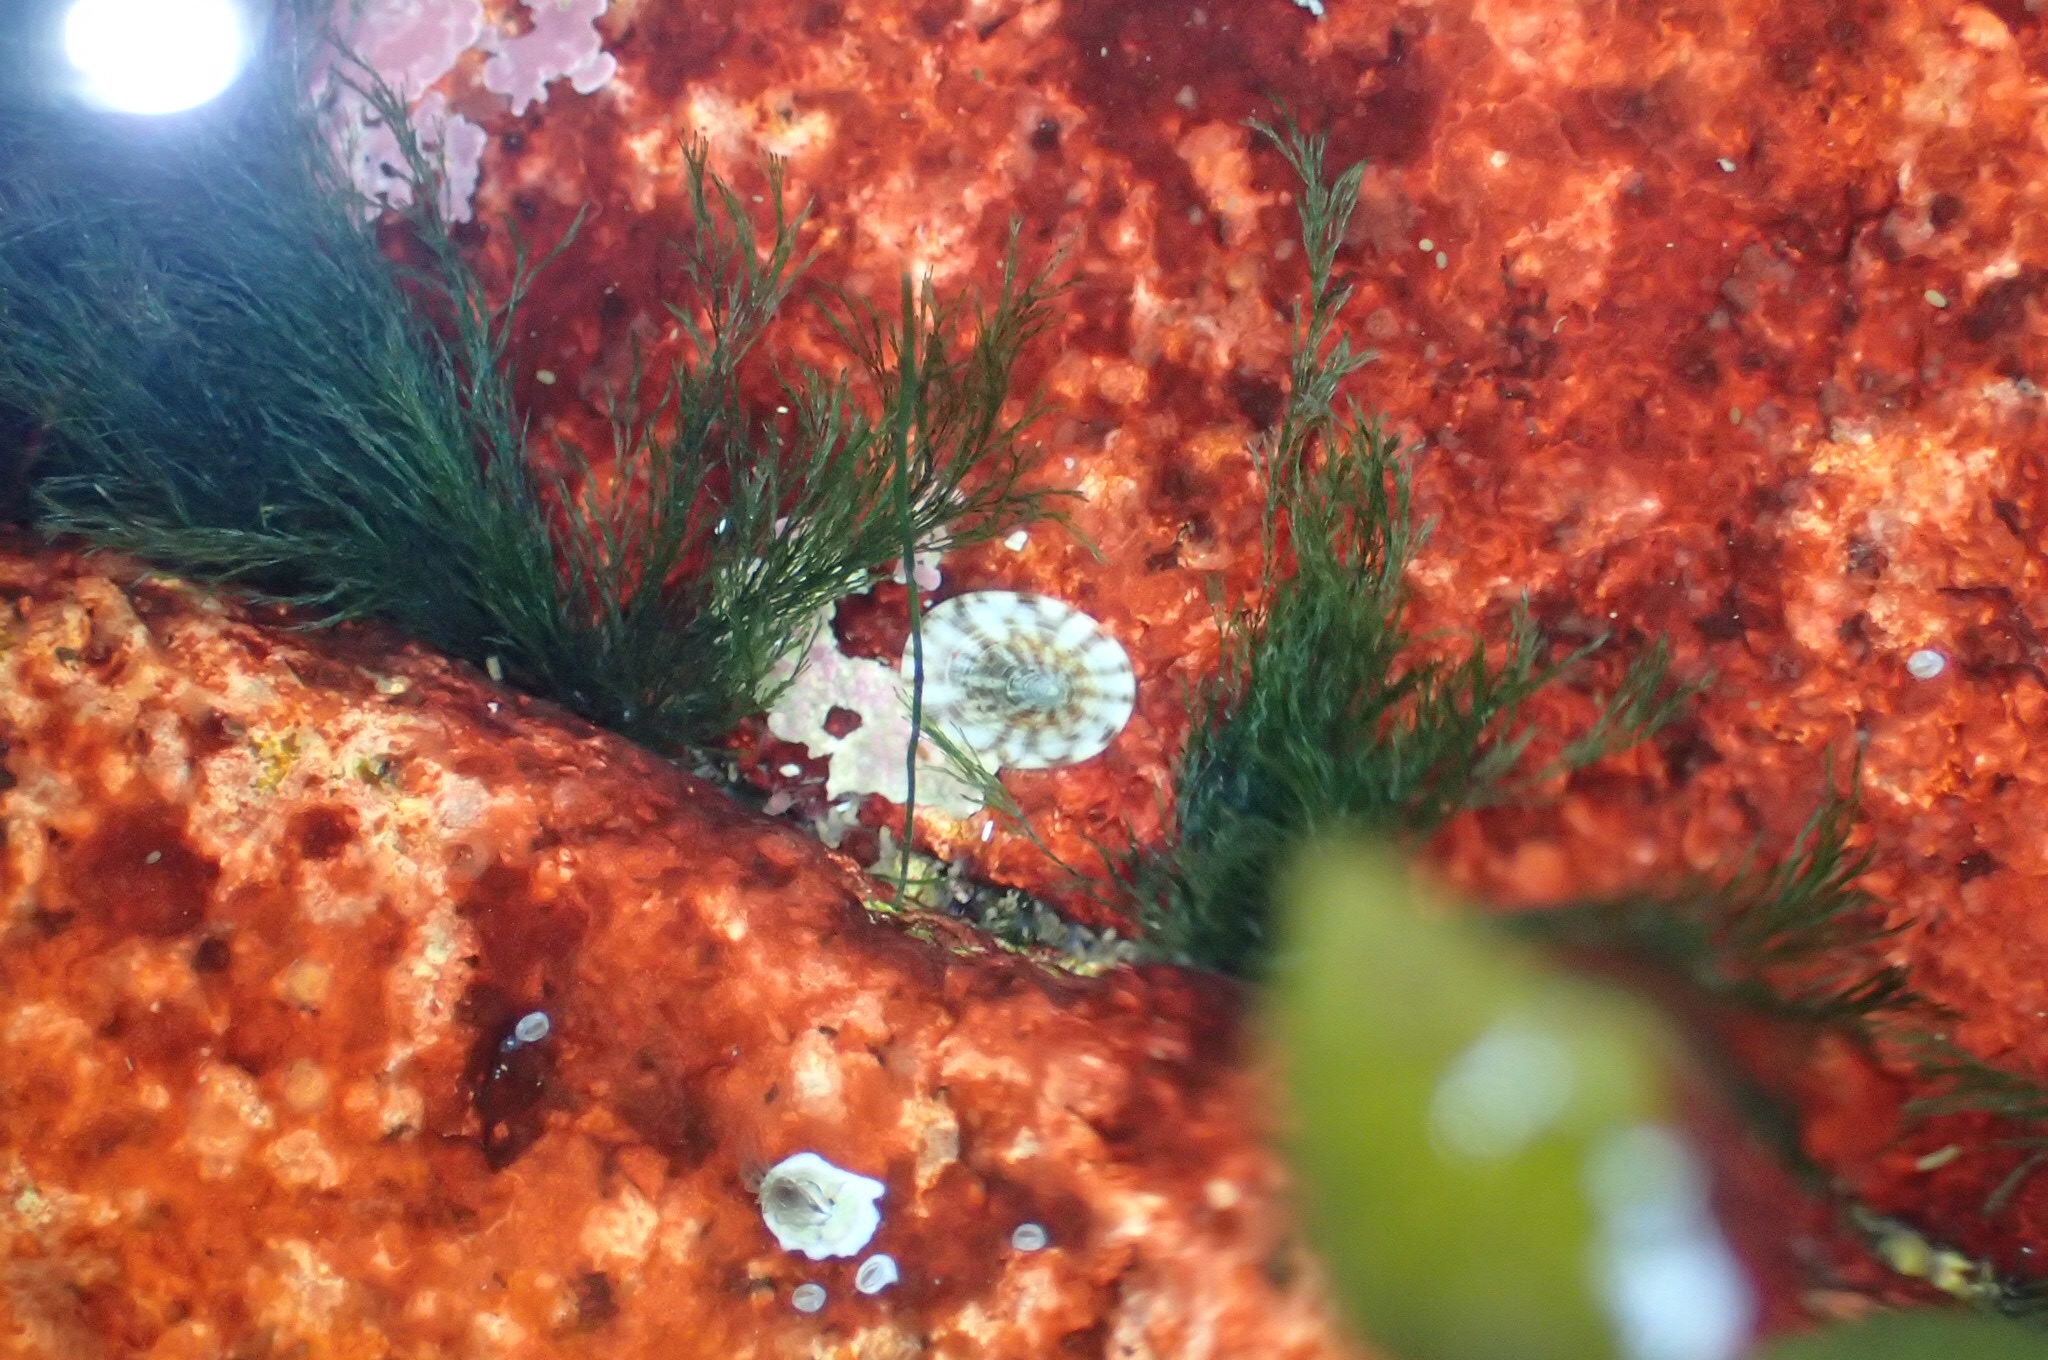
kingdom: Animalia
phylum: Mollusca
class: Gastropoda
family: Lottiidae
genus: Testudinalia
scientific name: Testudinalia testudinalis
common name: Common tortoiseshell limpet
